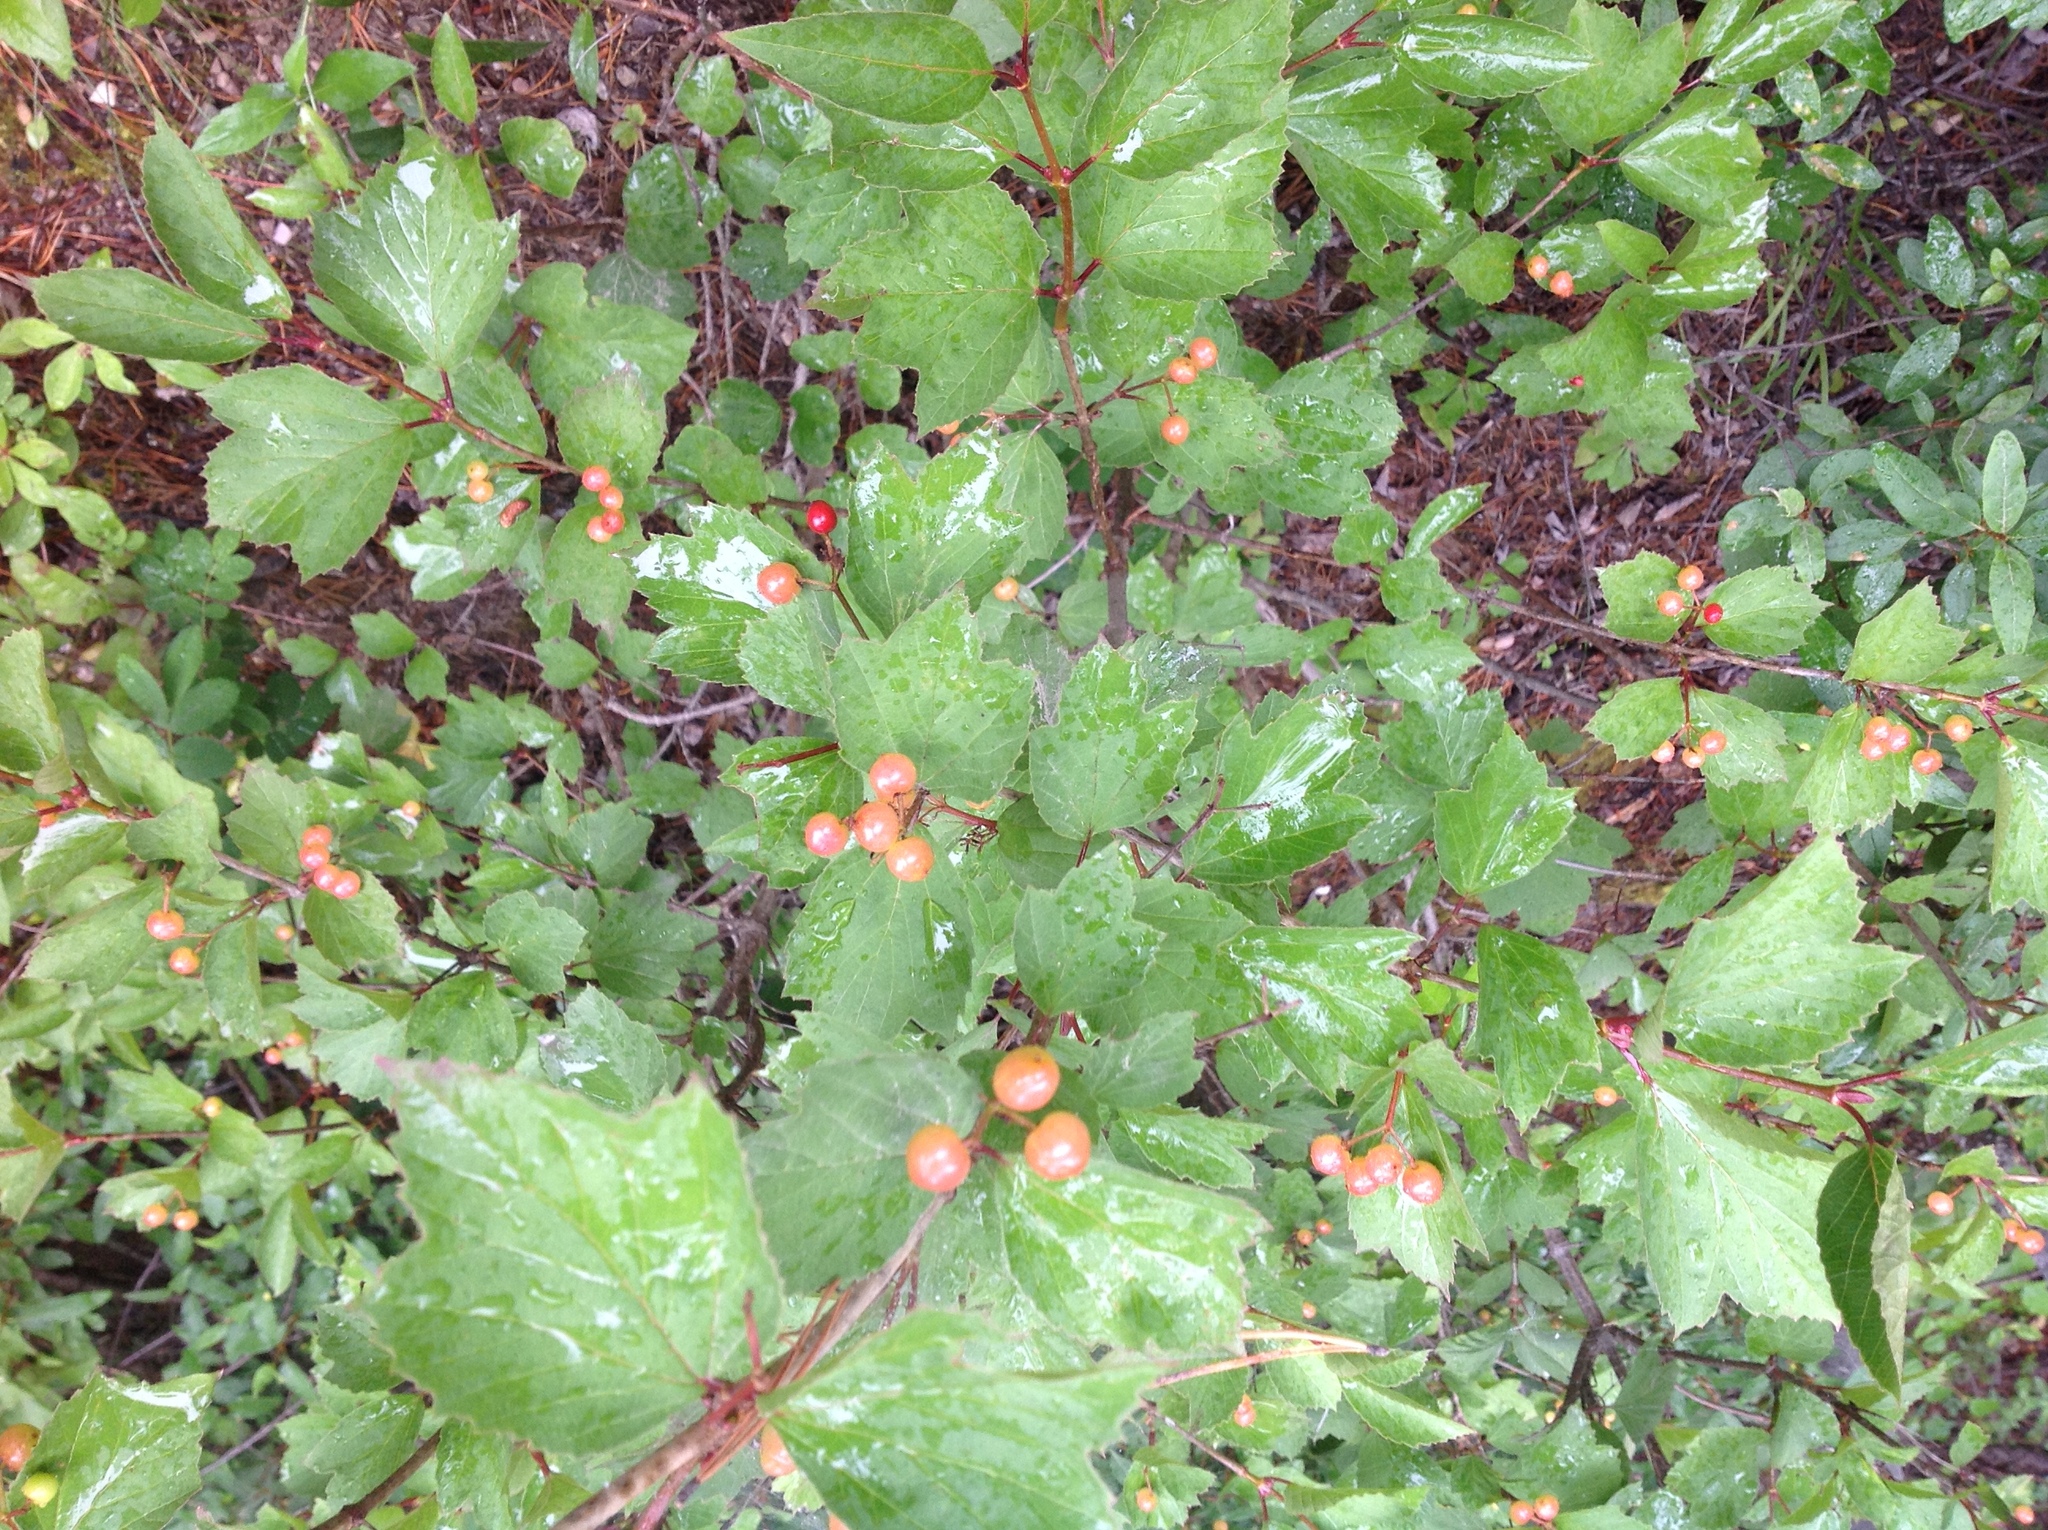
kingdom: Plantae
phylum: Tracheophyta
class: Magnoliopsida
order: Dipsacales
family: Viburnaceae
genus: Viburnum
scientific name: Viburnum edule
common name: Mooseberry
